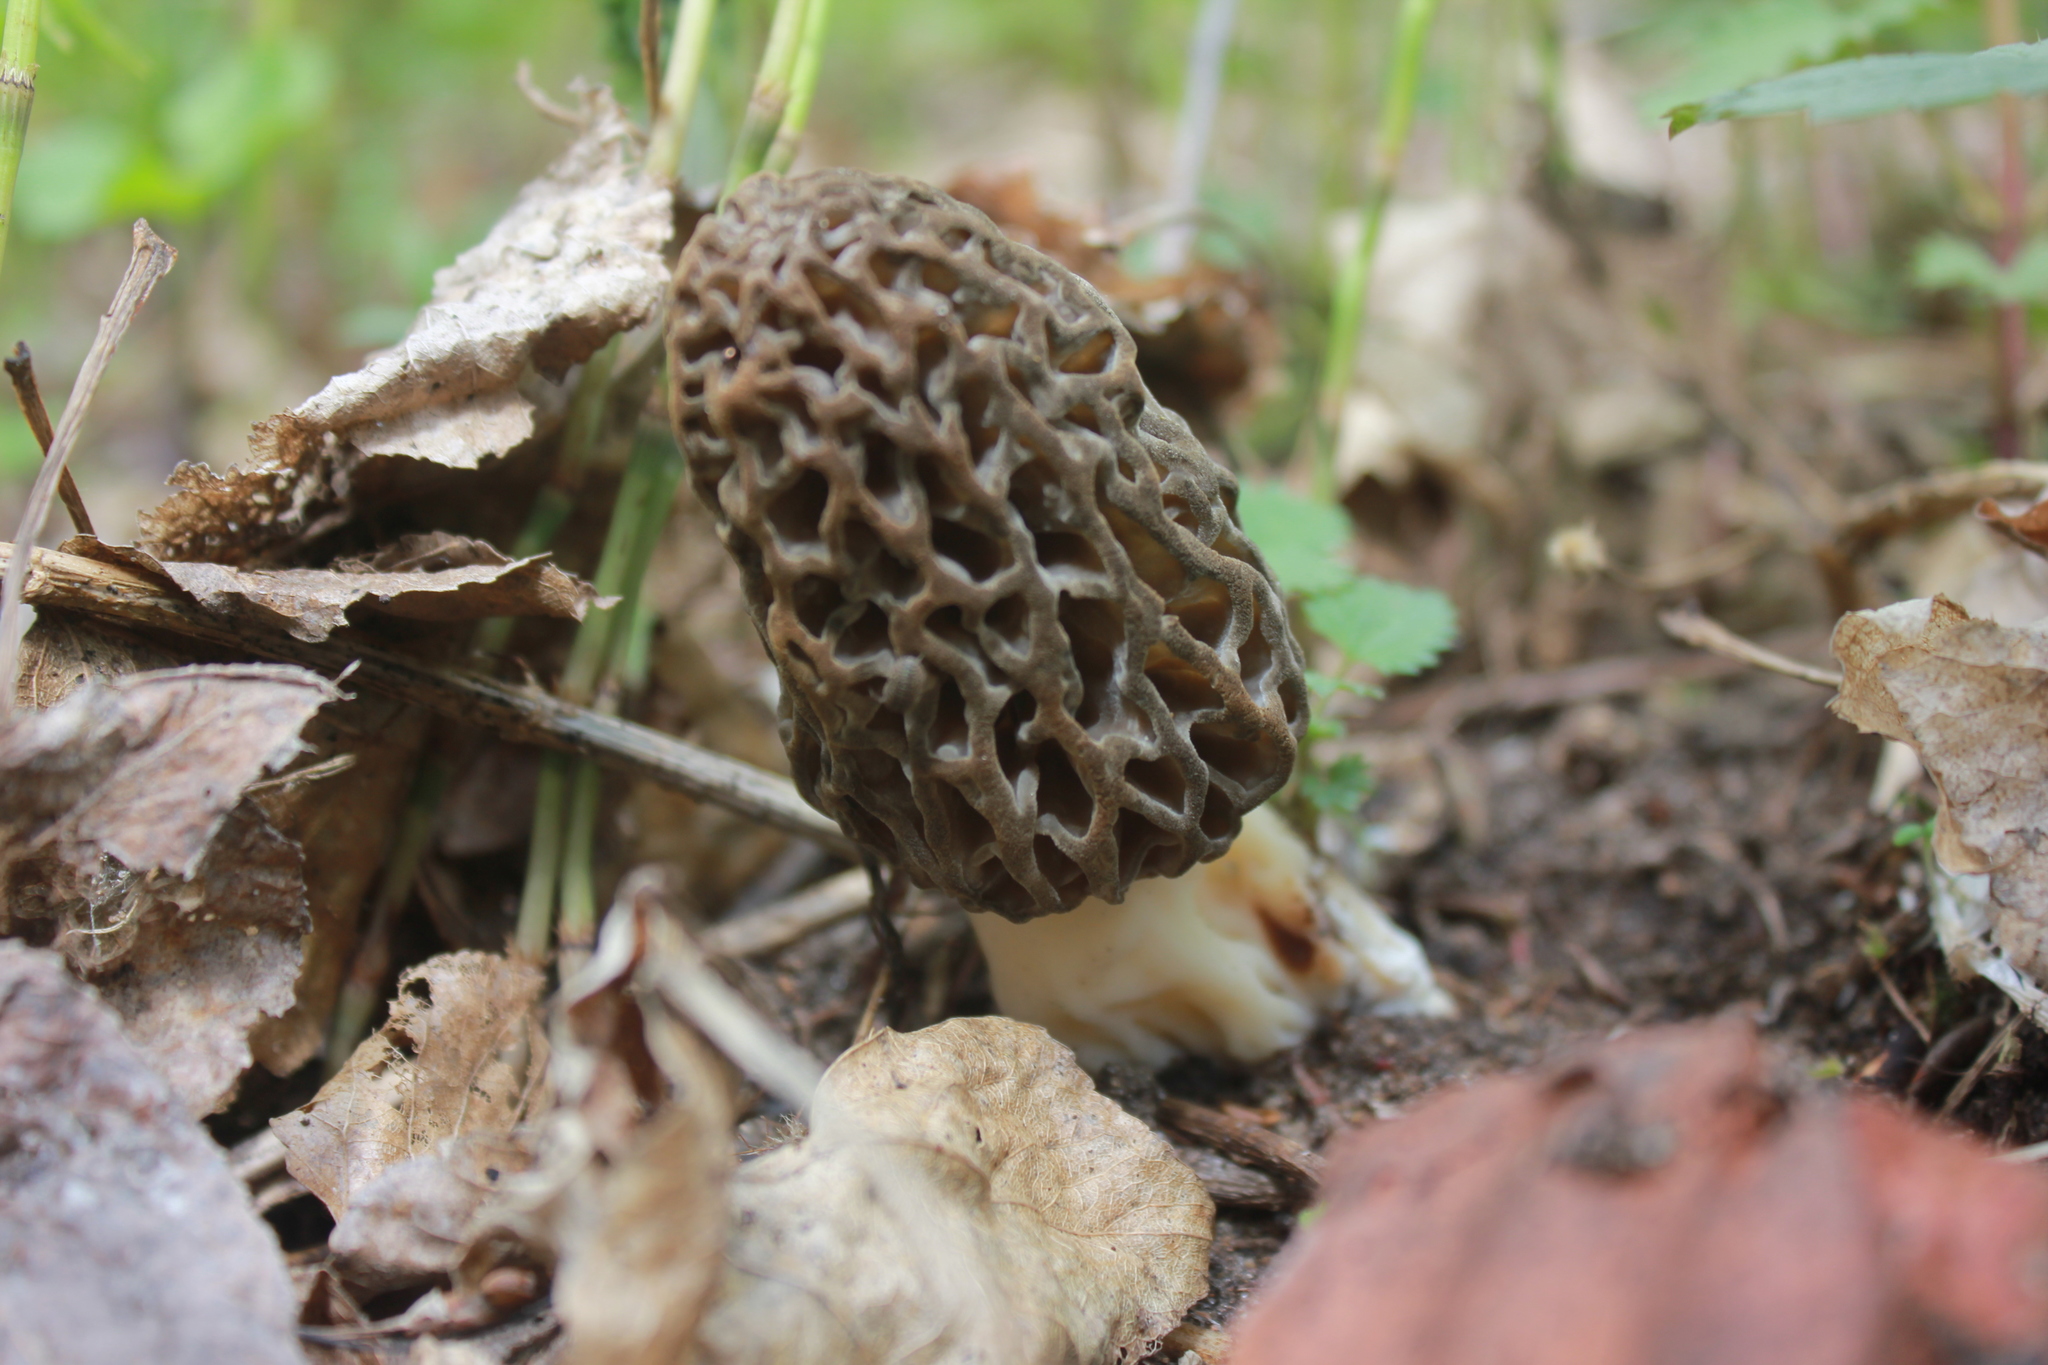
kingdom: Fungi
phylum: Ascomycota
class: Pezizomycetes
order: Pezizales
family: Morchellaceae
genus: Morchella
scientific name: Morchella
